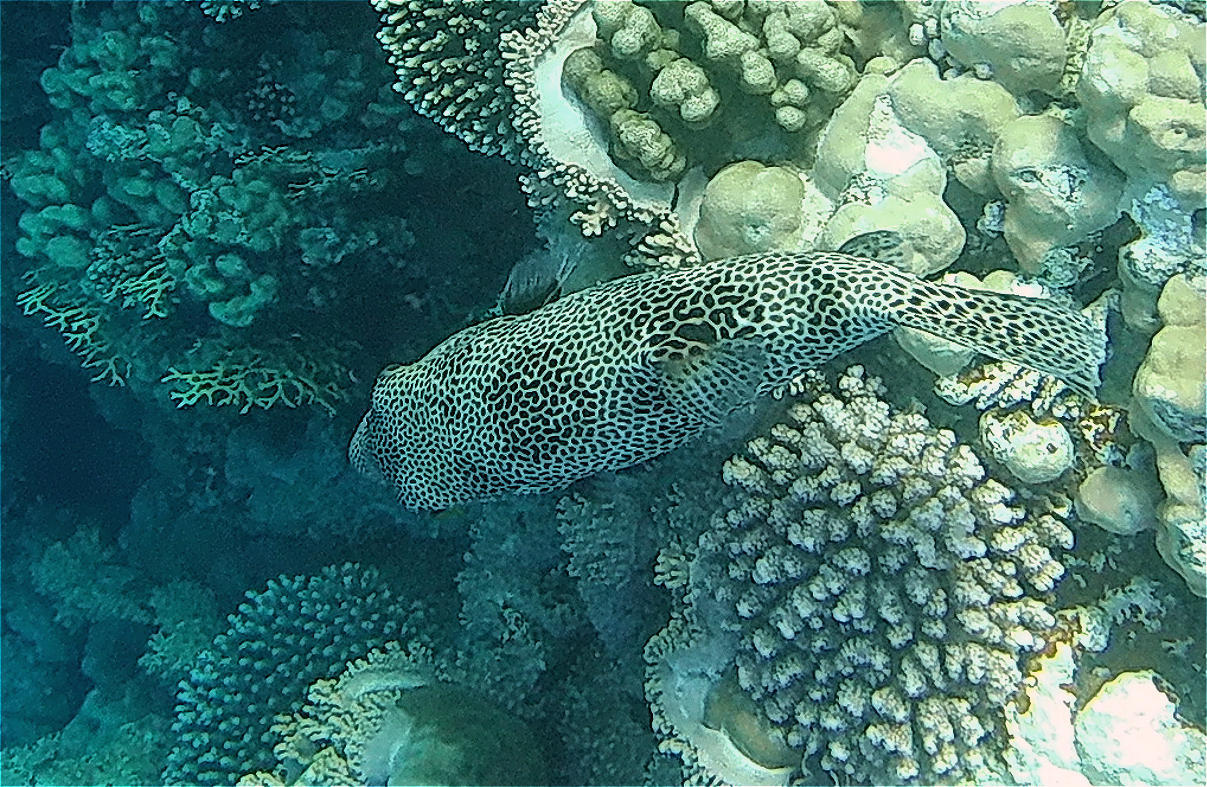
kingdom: Animalia
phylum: Chordata
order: Tetraodontiformes
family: Tetraodontidae
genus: Arothron
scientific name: Arothron stellatus
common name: Star blaasop
